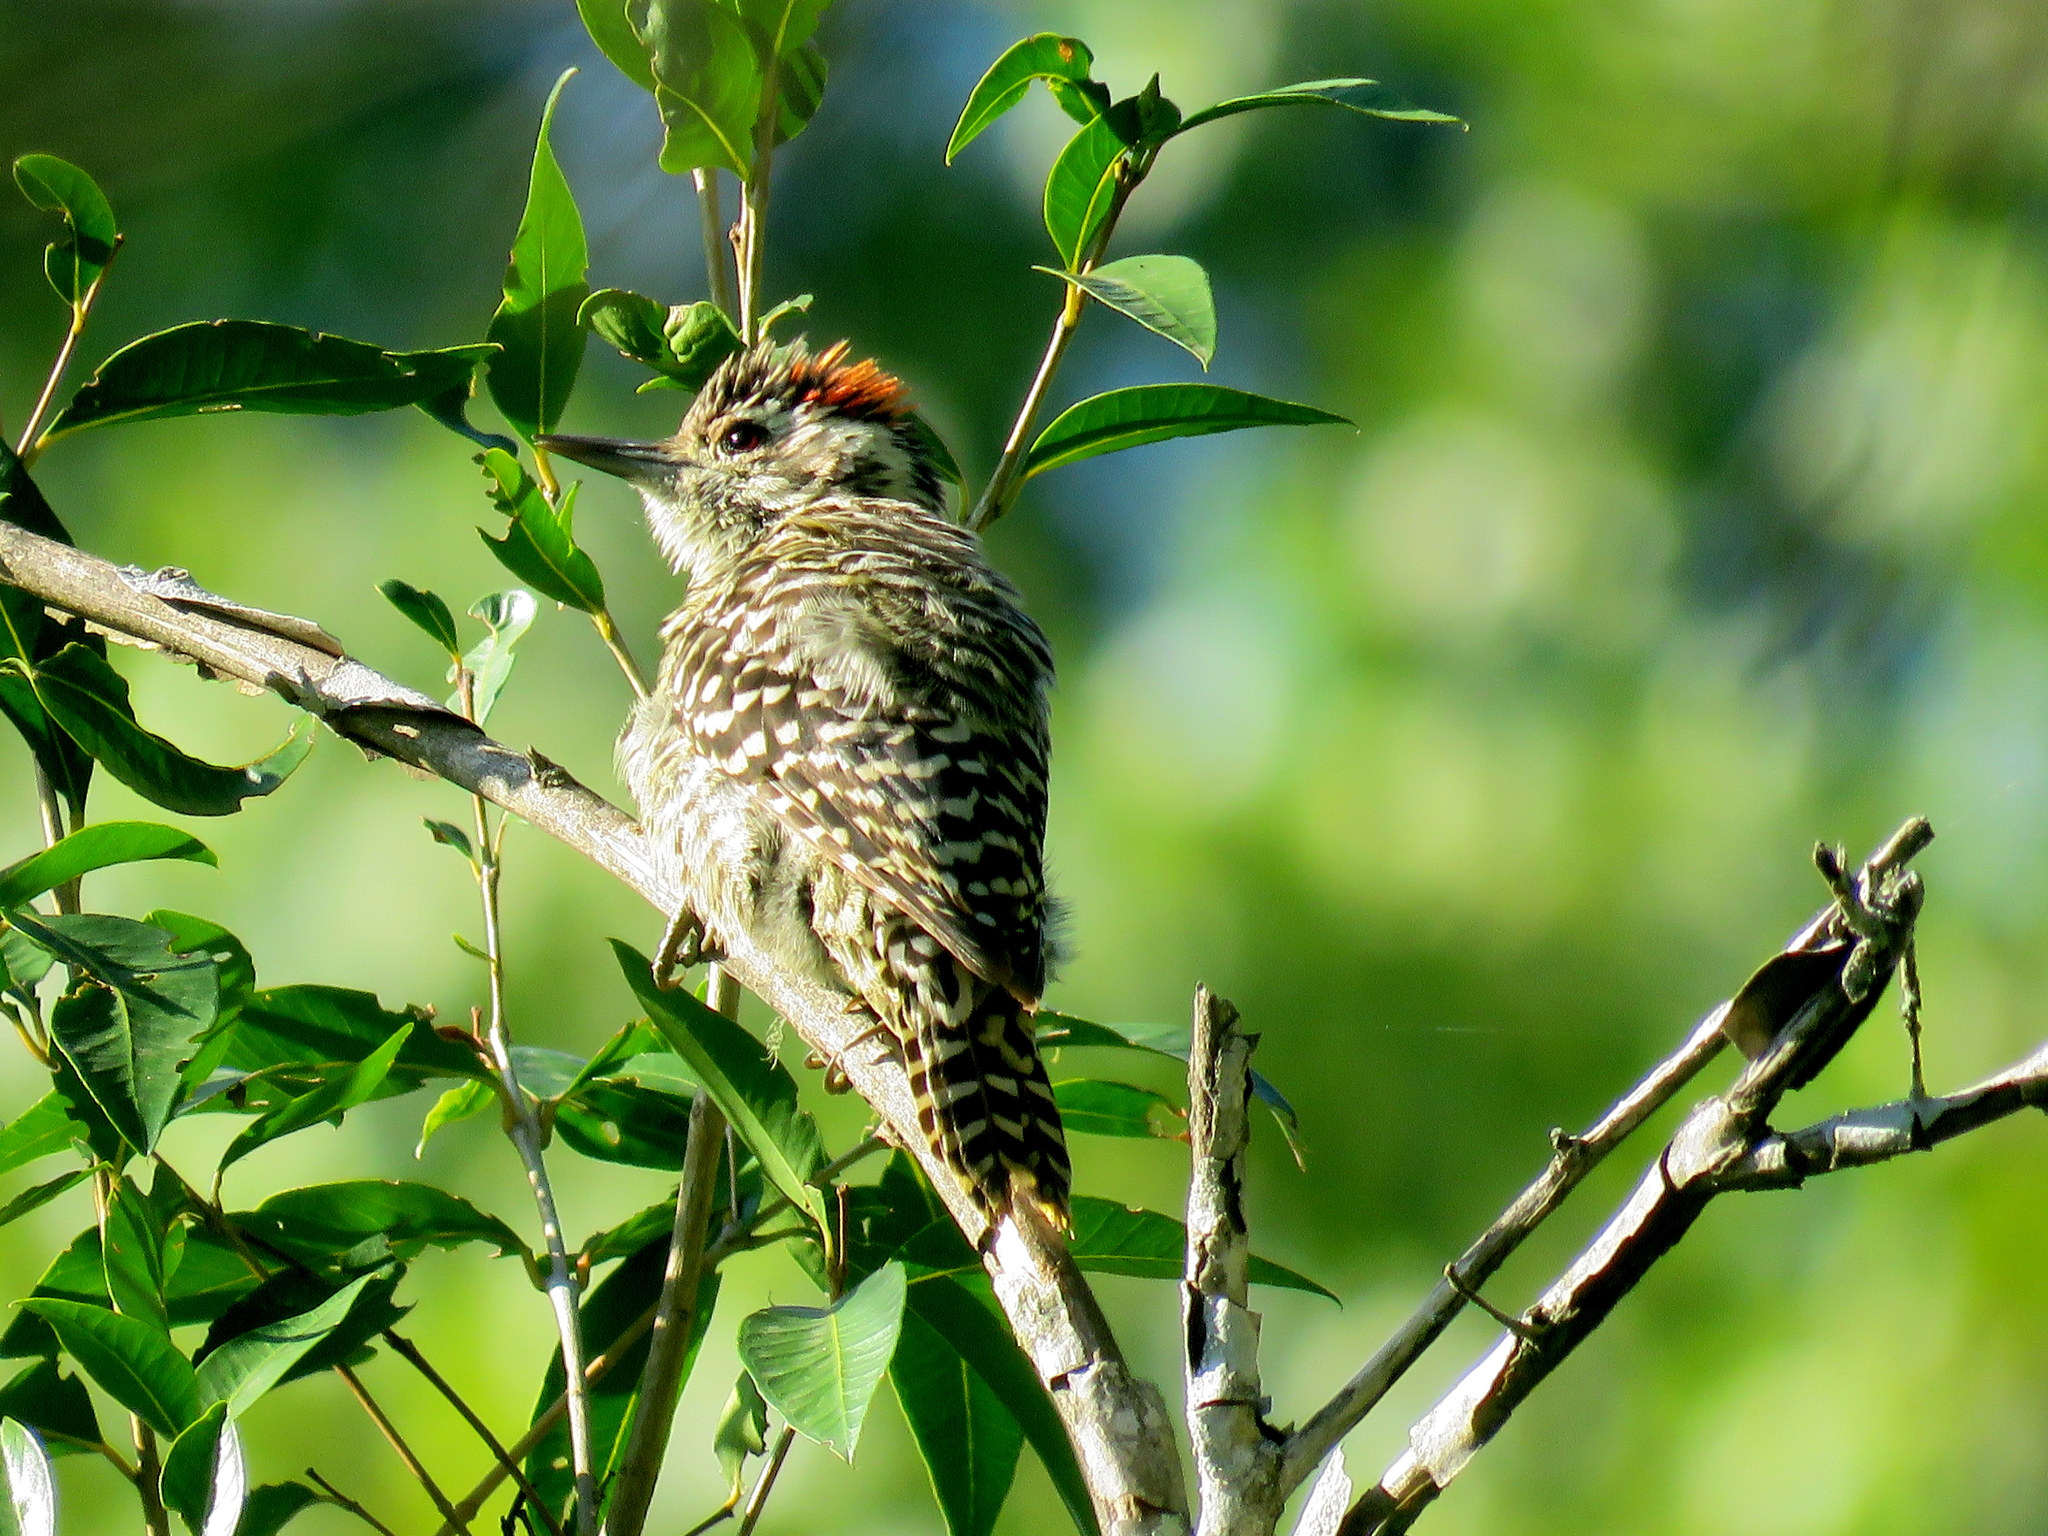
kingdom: Animalia
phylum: Chordata
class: Aves
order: Piciformes
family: Picidae
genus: Veniliornis
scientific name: Veniliornis mixtus
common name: Checkered woodpecker
